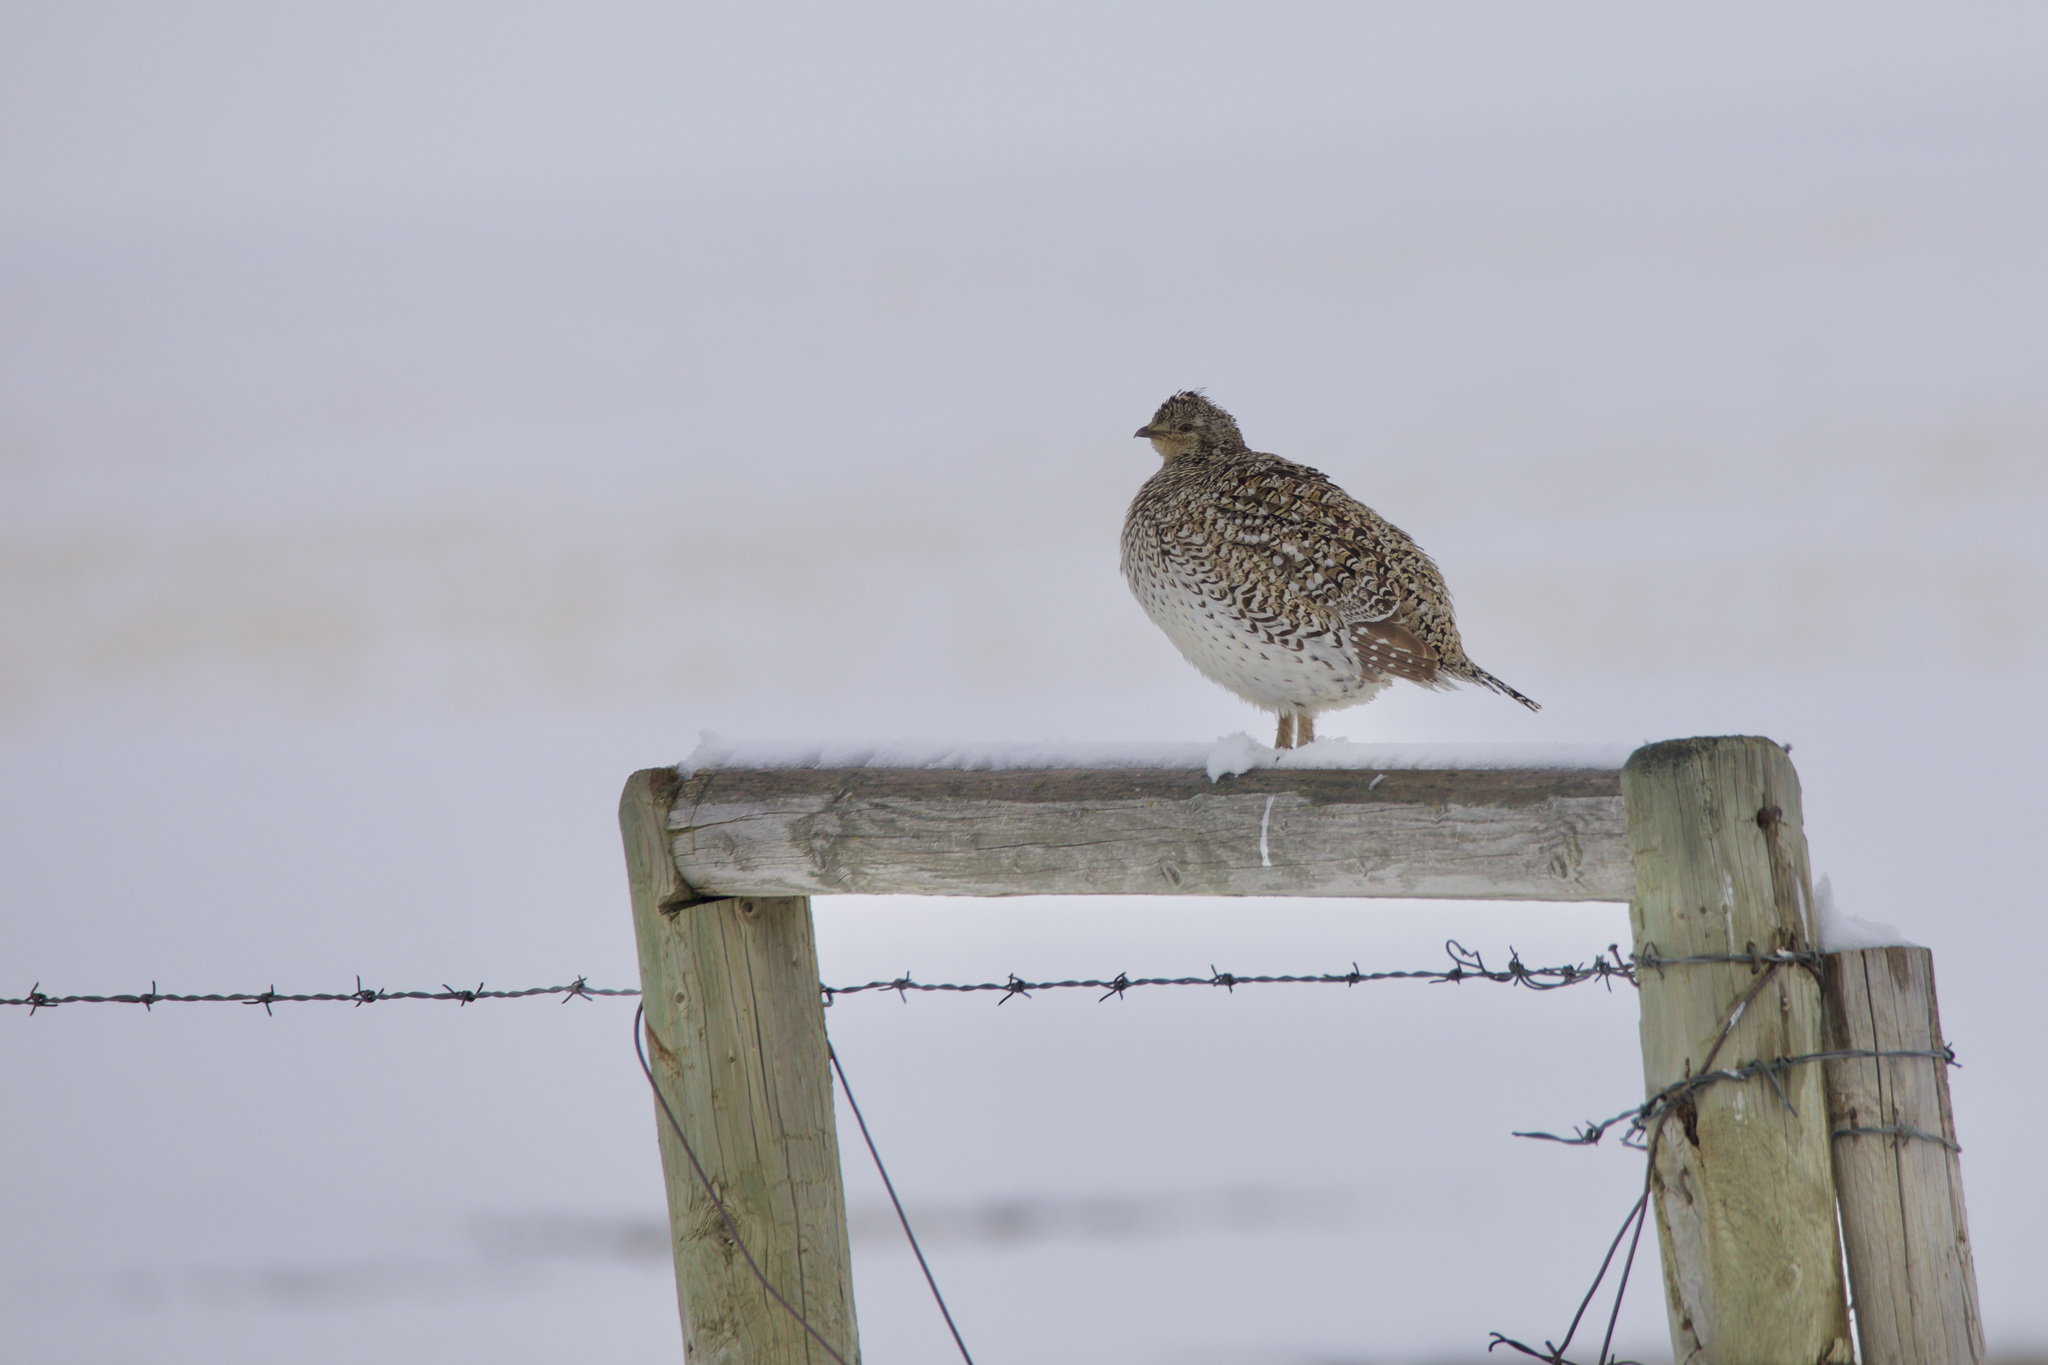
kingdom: Animalia
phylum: Chordata
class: Aves
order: Galliformes
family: Phasianidae
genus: Tympanuchus
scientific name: Tympanuchus phasianellus
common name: Sharp-tailed grouse
